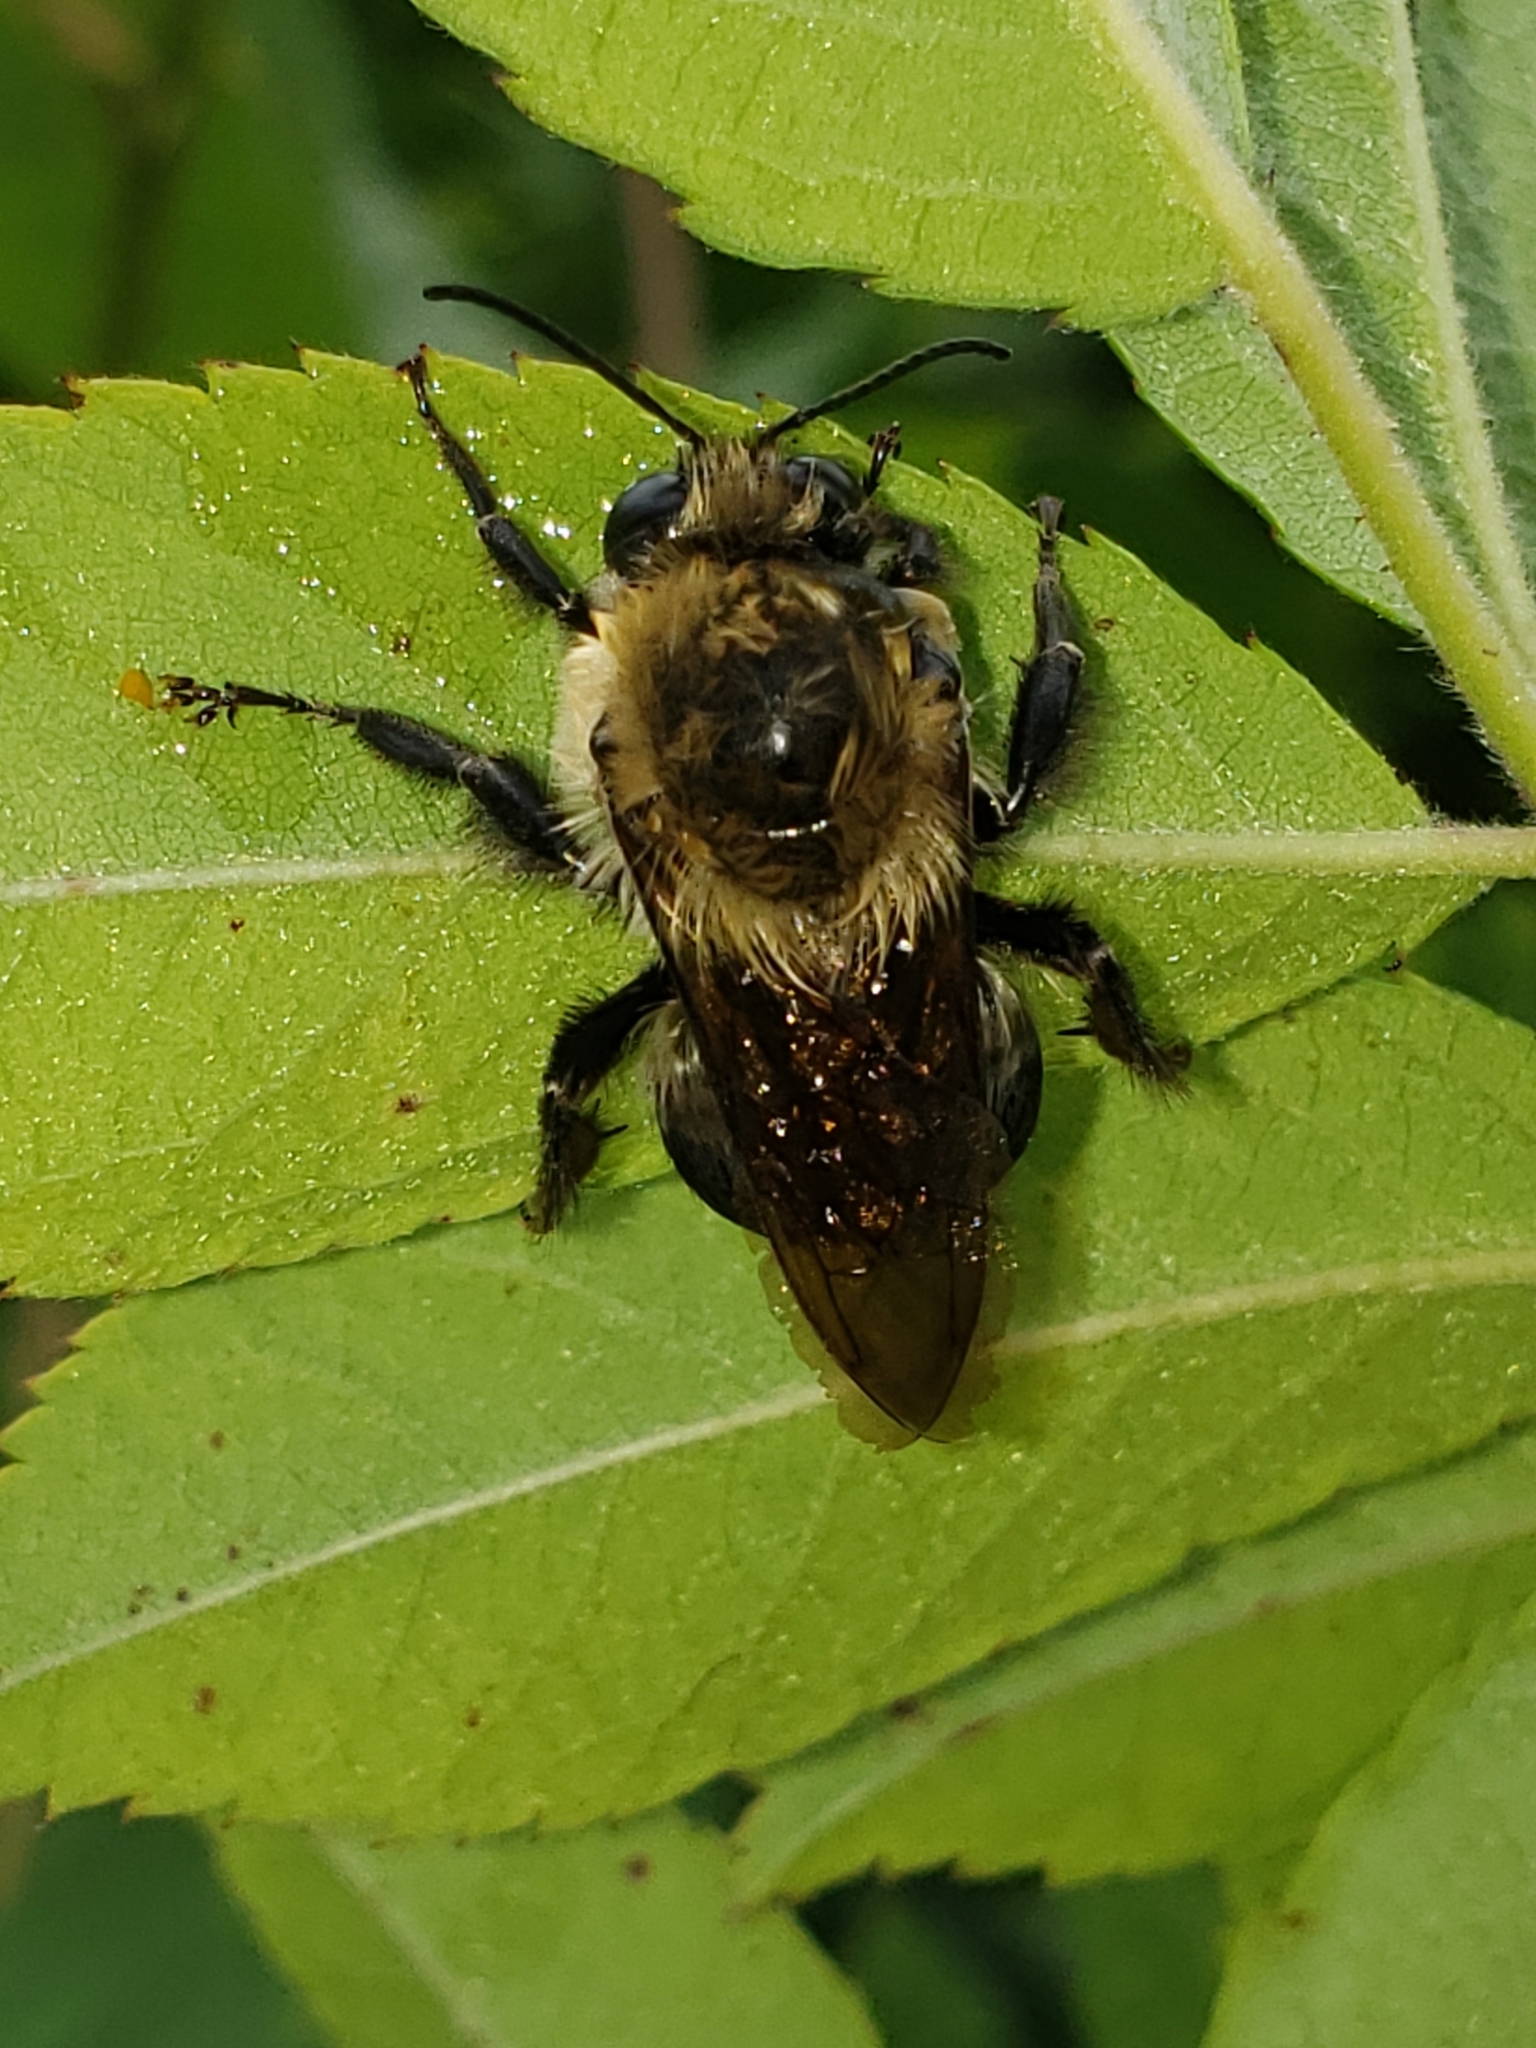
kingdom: Animalia
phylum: Arthropoda
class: Insecta
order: Hymenoptera
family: Apidae
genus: Bombus
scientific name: Bombus griseocollis
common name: Brown-belted bumble bee
